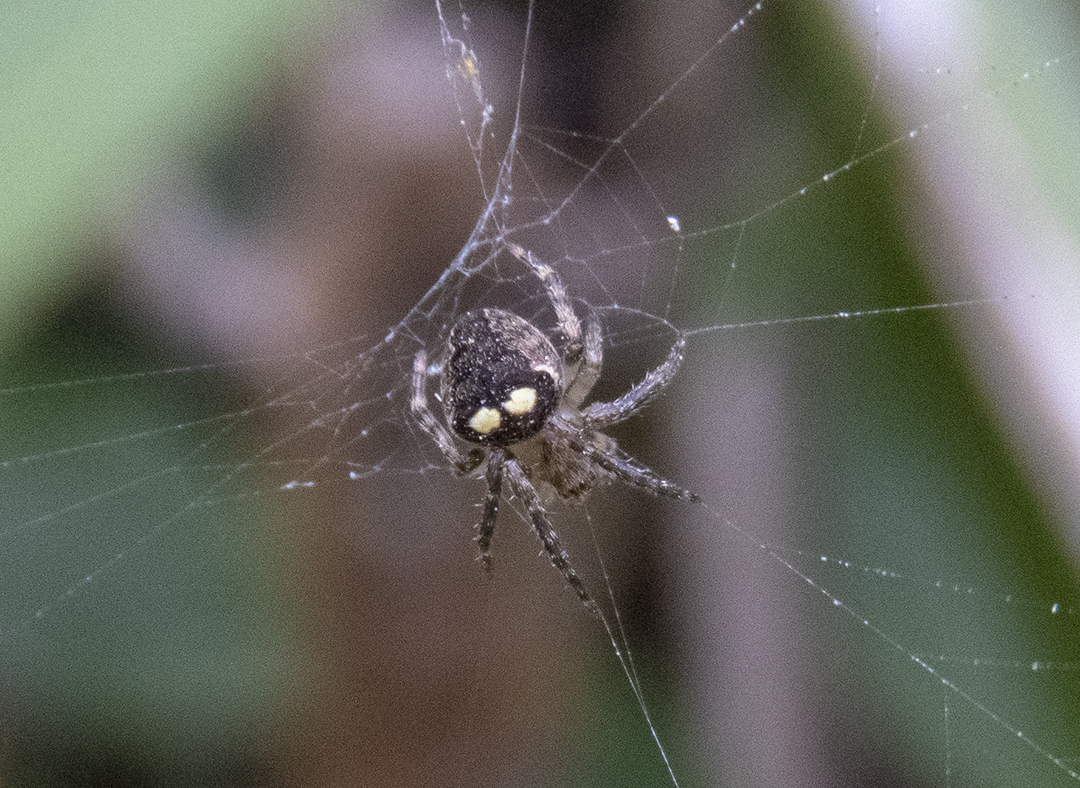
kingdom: Animalia
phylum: Arthropoda
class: Arachnida
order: Araneae
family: Araneidae
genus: Zealaranea
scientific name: Zealaranea crassa
